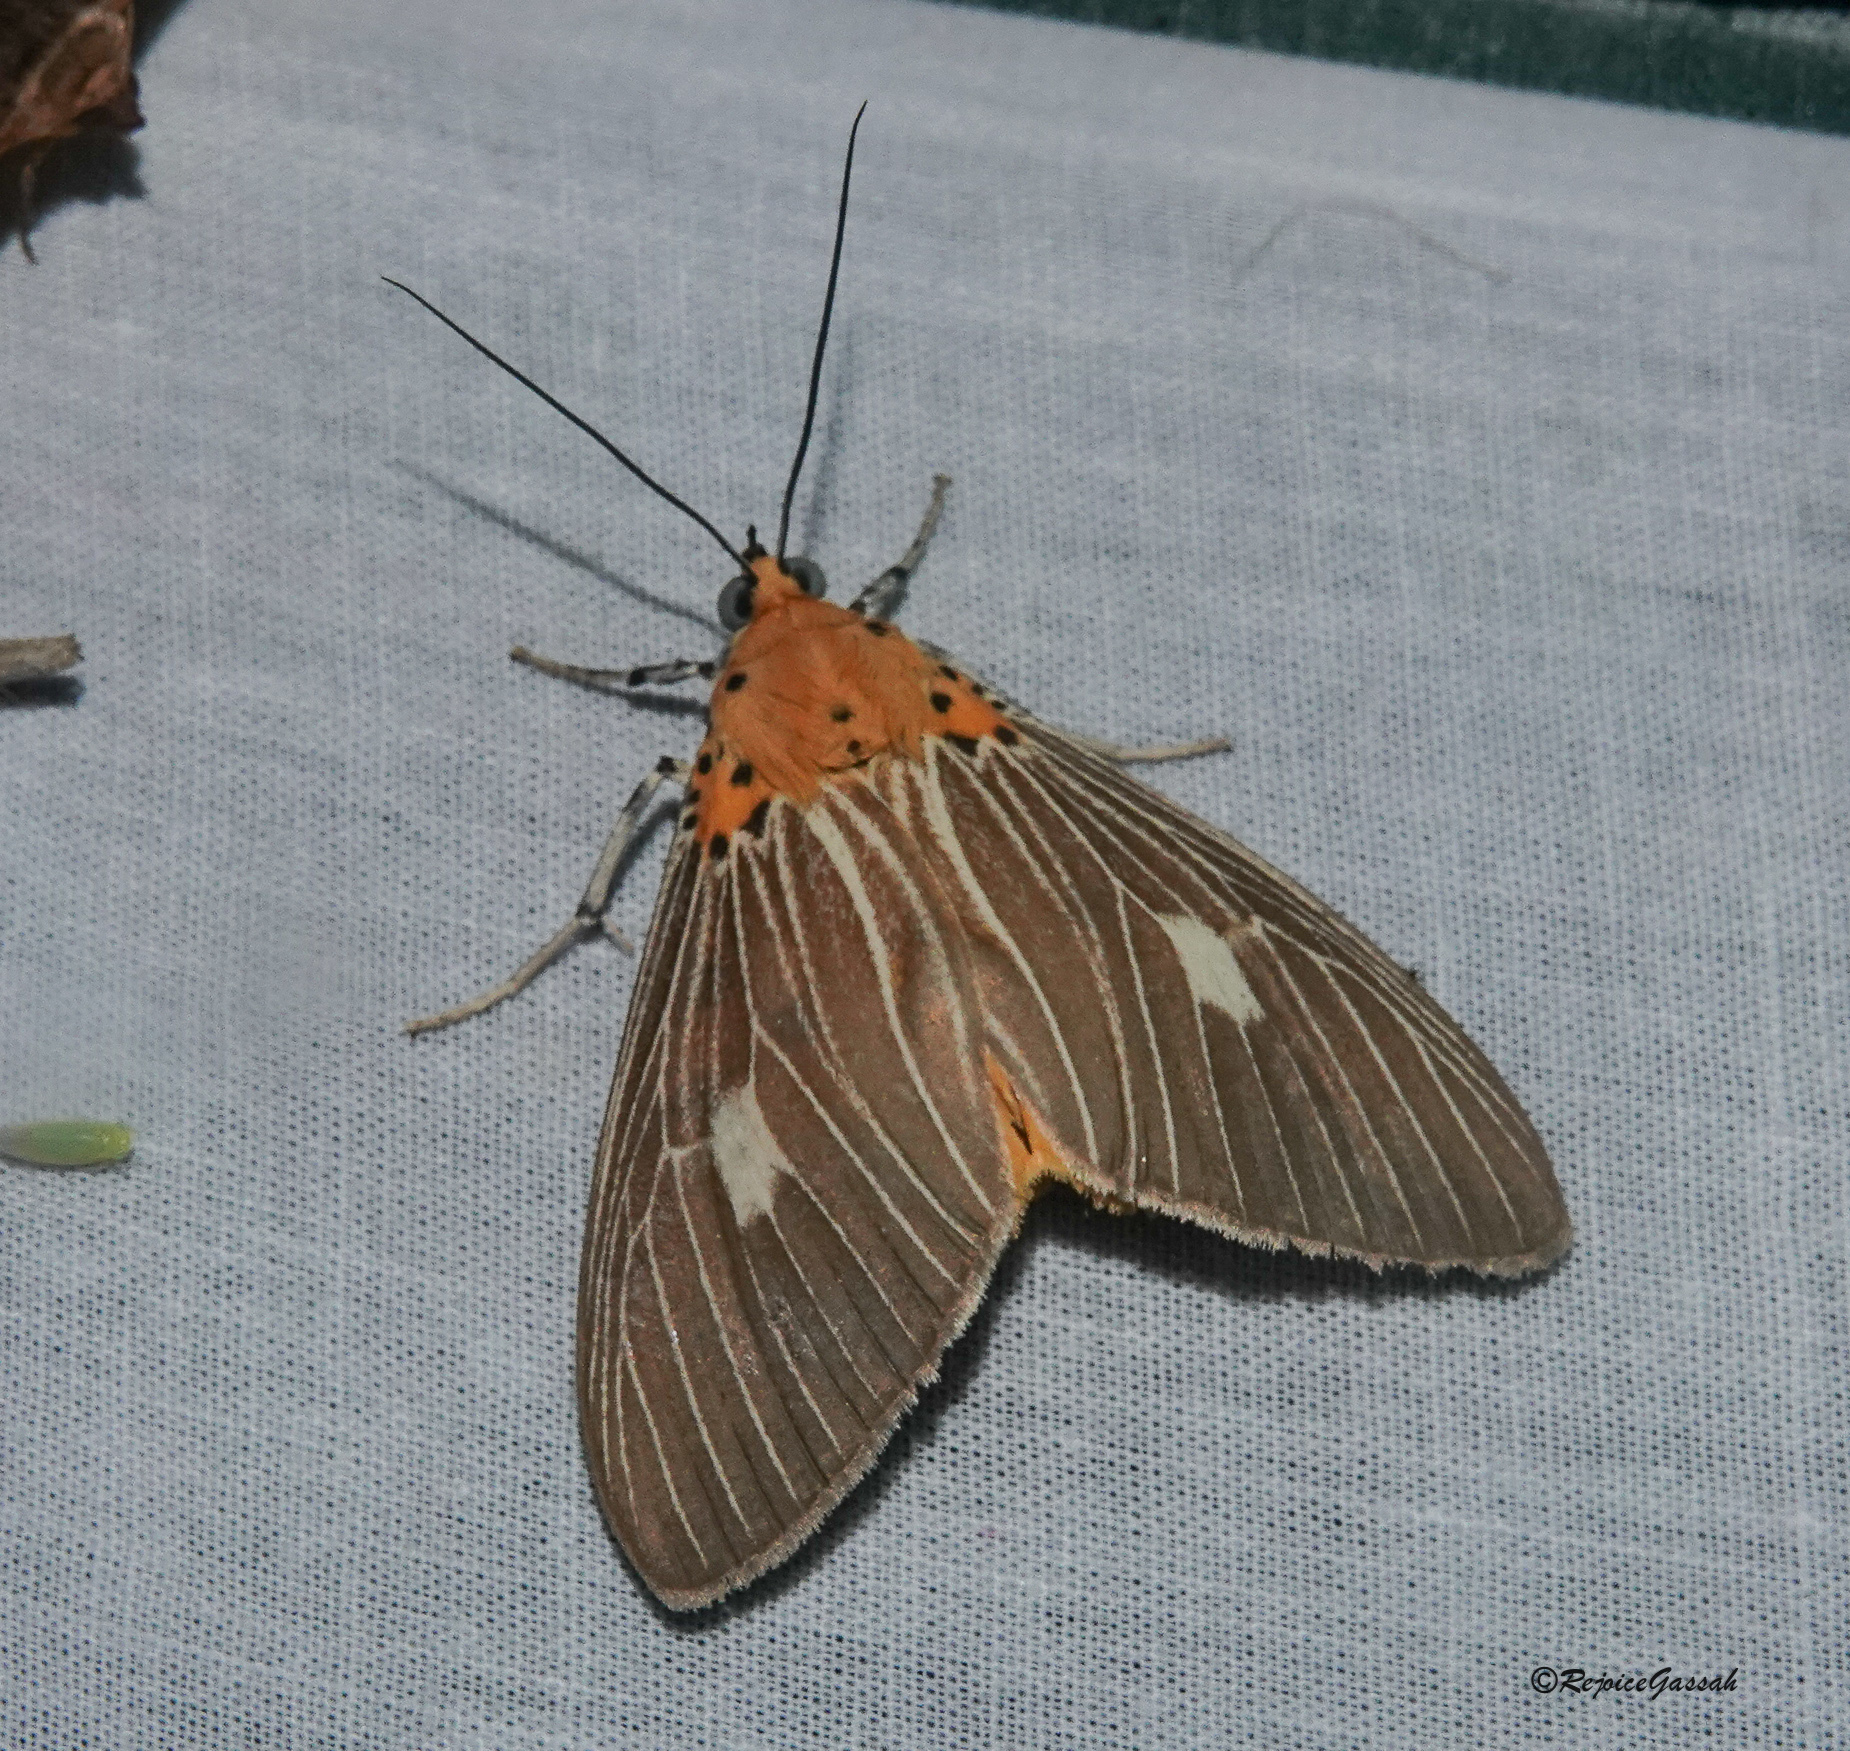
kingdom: Animalia
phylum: Arthropoda
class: Insecta
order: Lepidoptera
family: Erebidae
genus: Asota
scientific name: Asota plaginota
